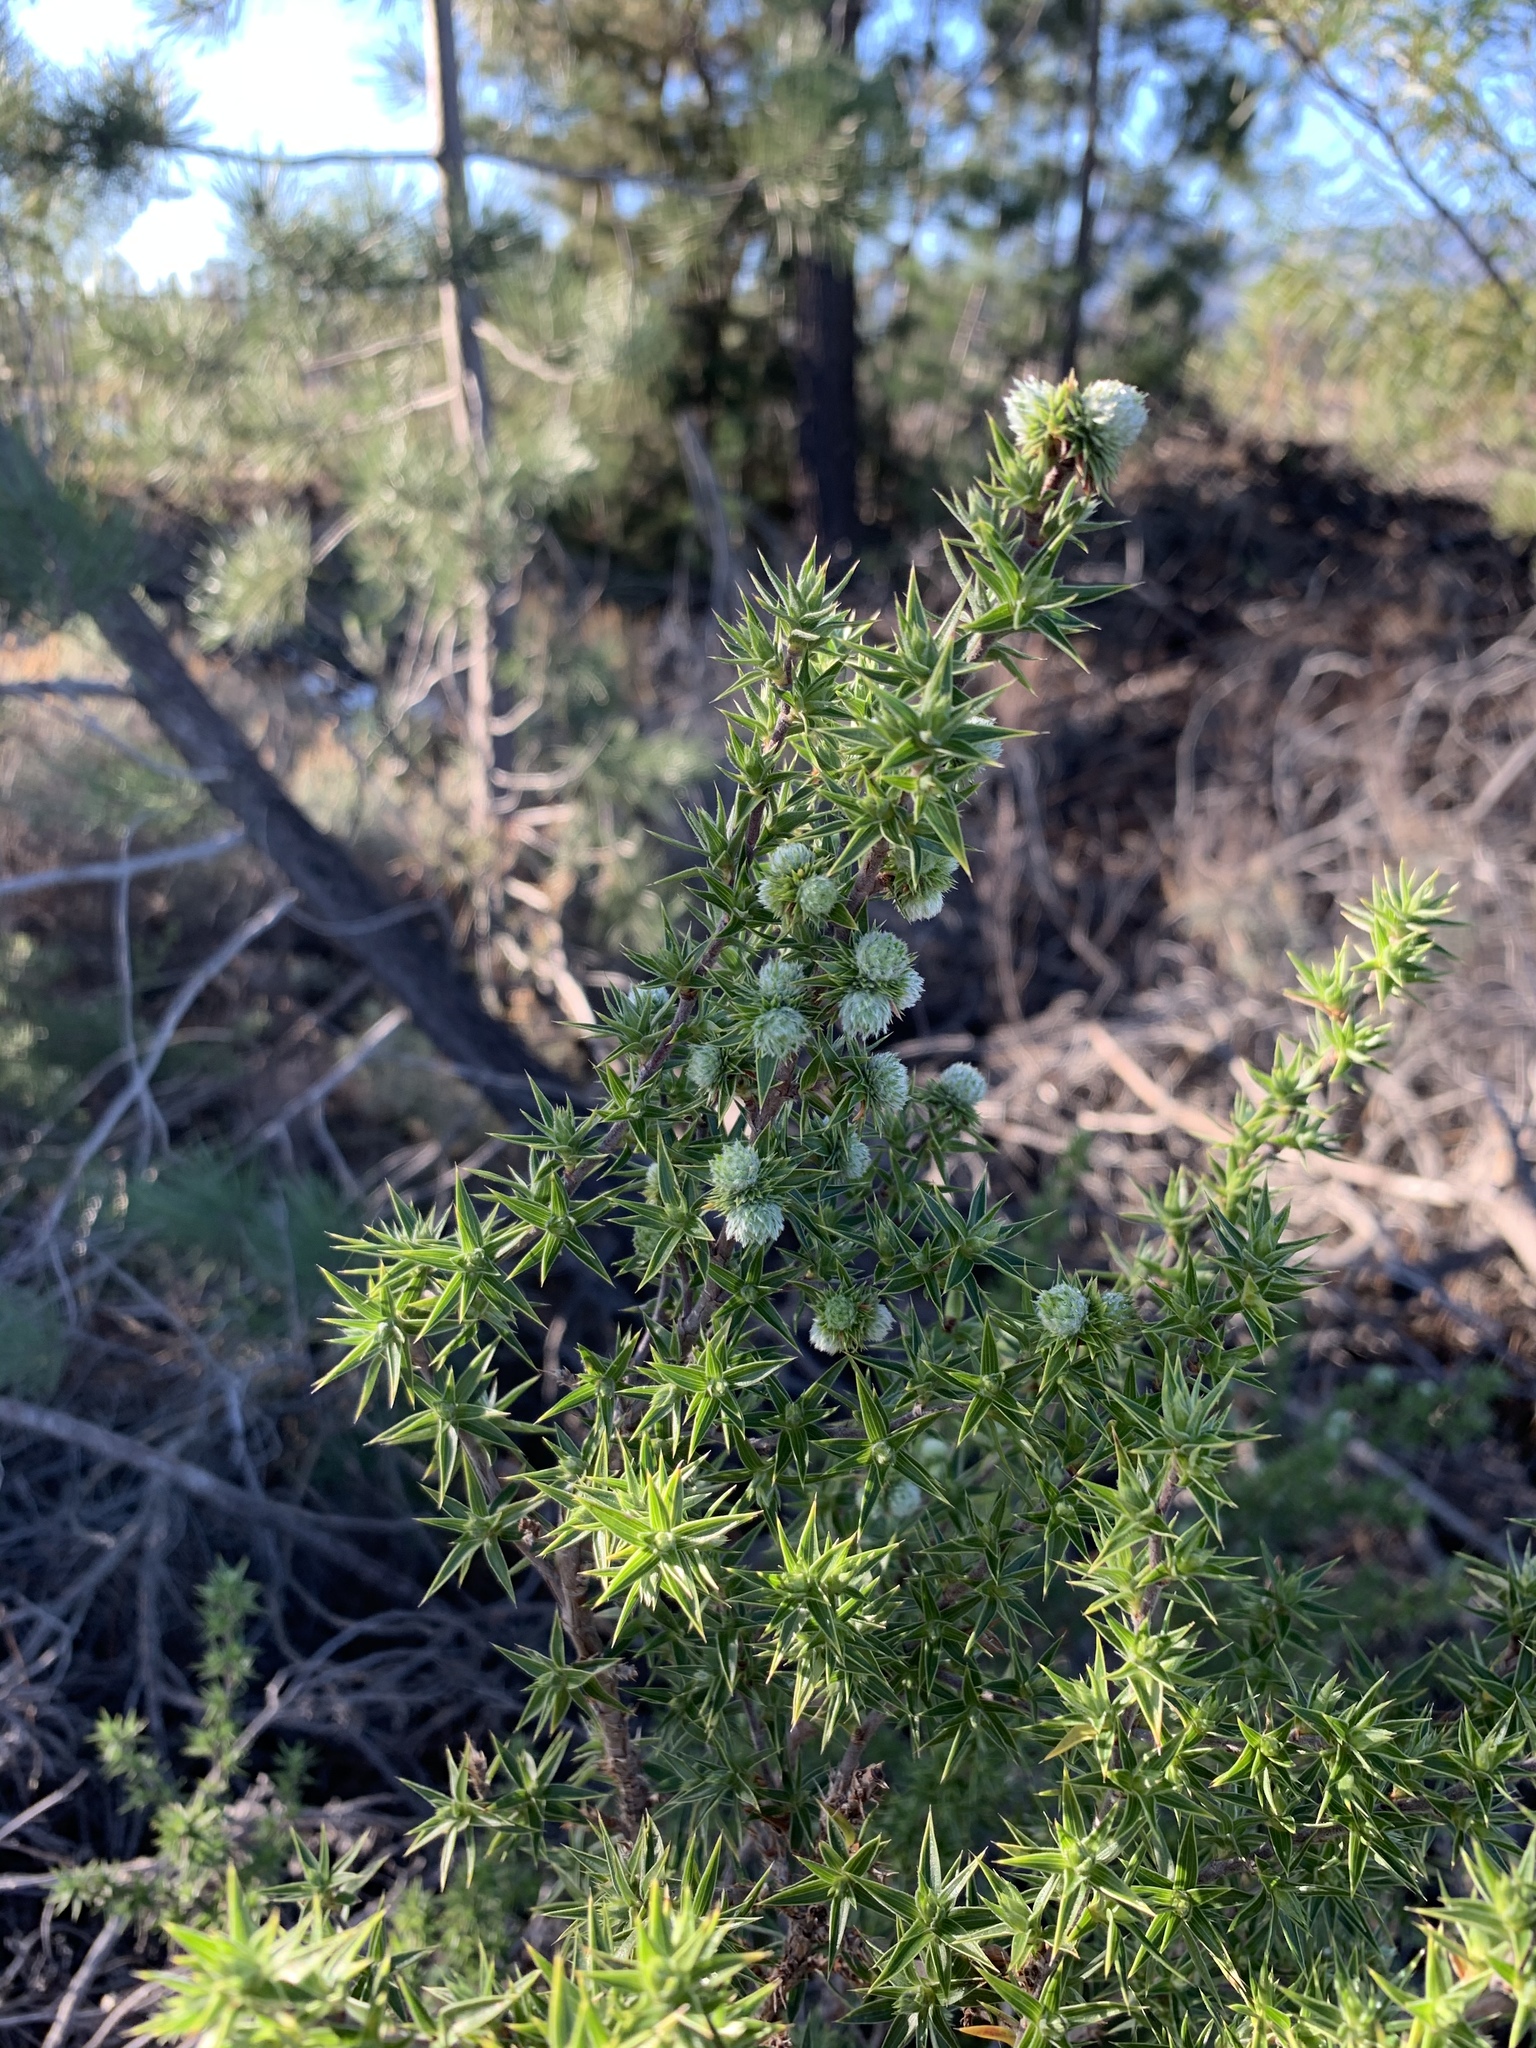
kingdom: Plantae
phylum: Tracheophyta
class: Magnoliopsida
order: Rosales
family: Rosaceae
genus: Cliffortia
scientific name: Cliffortia ruscifolia
